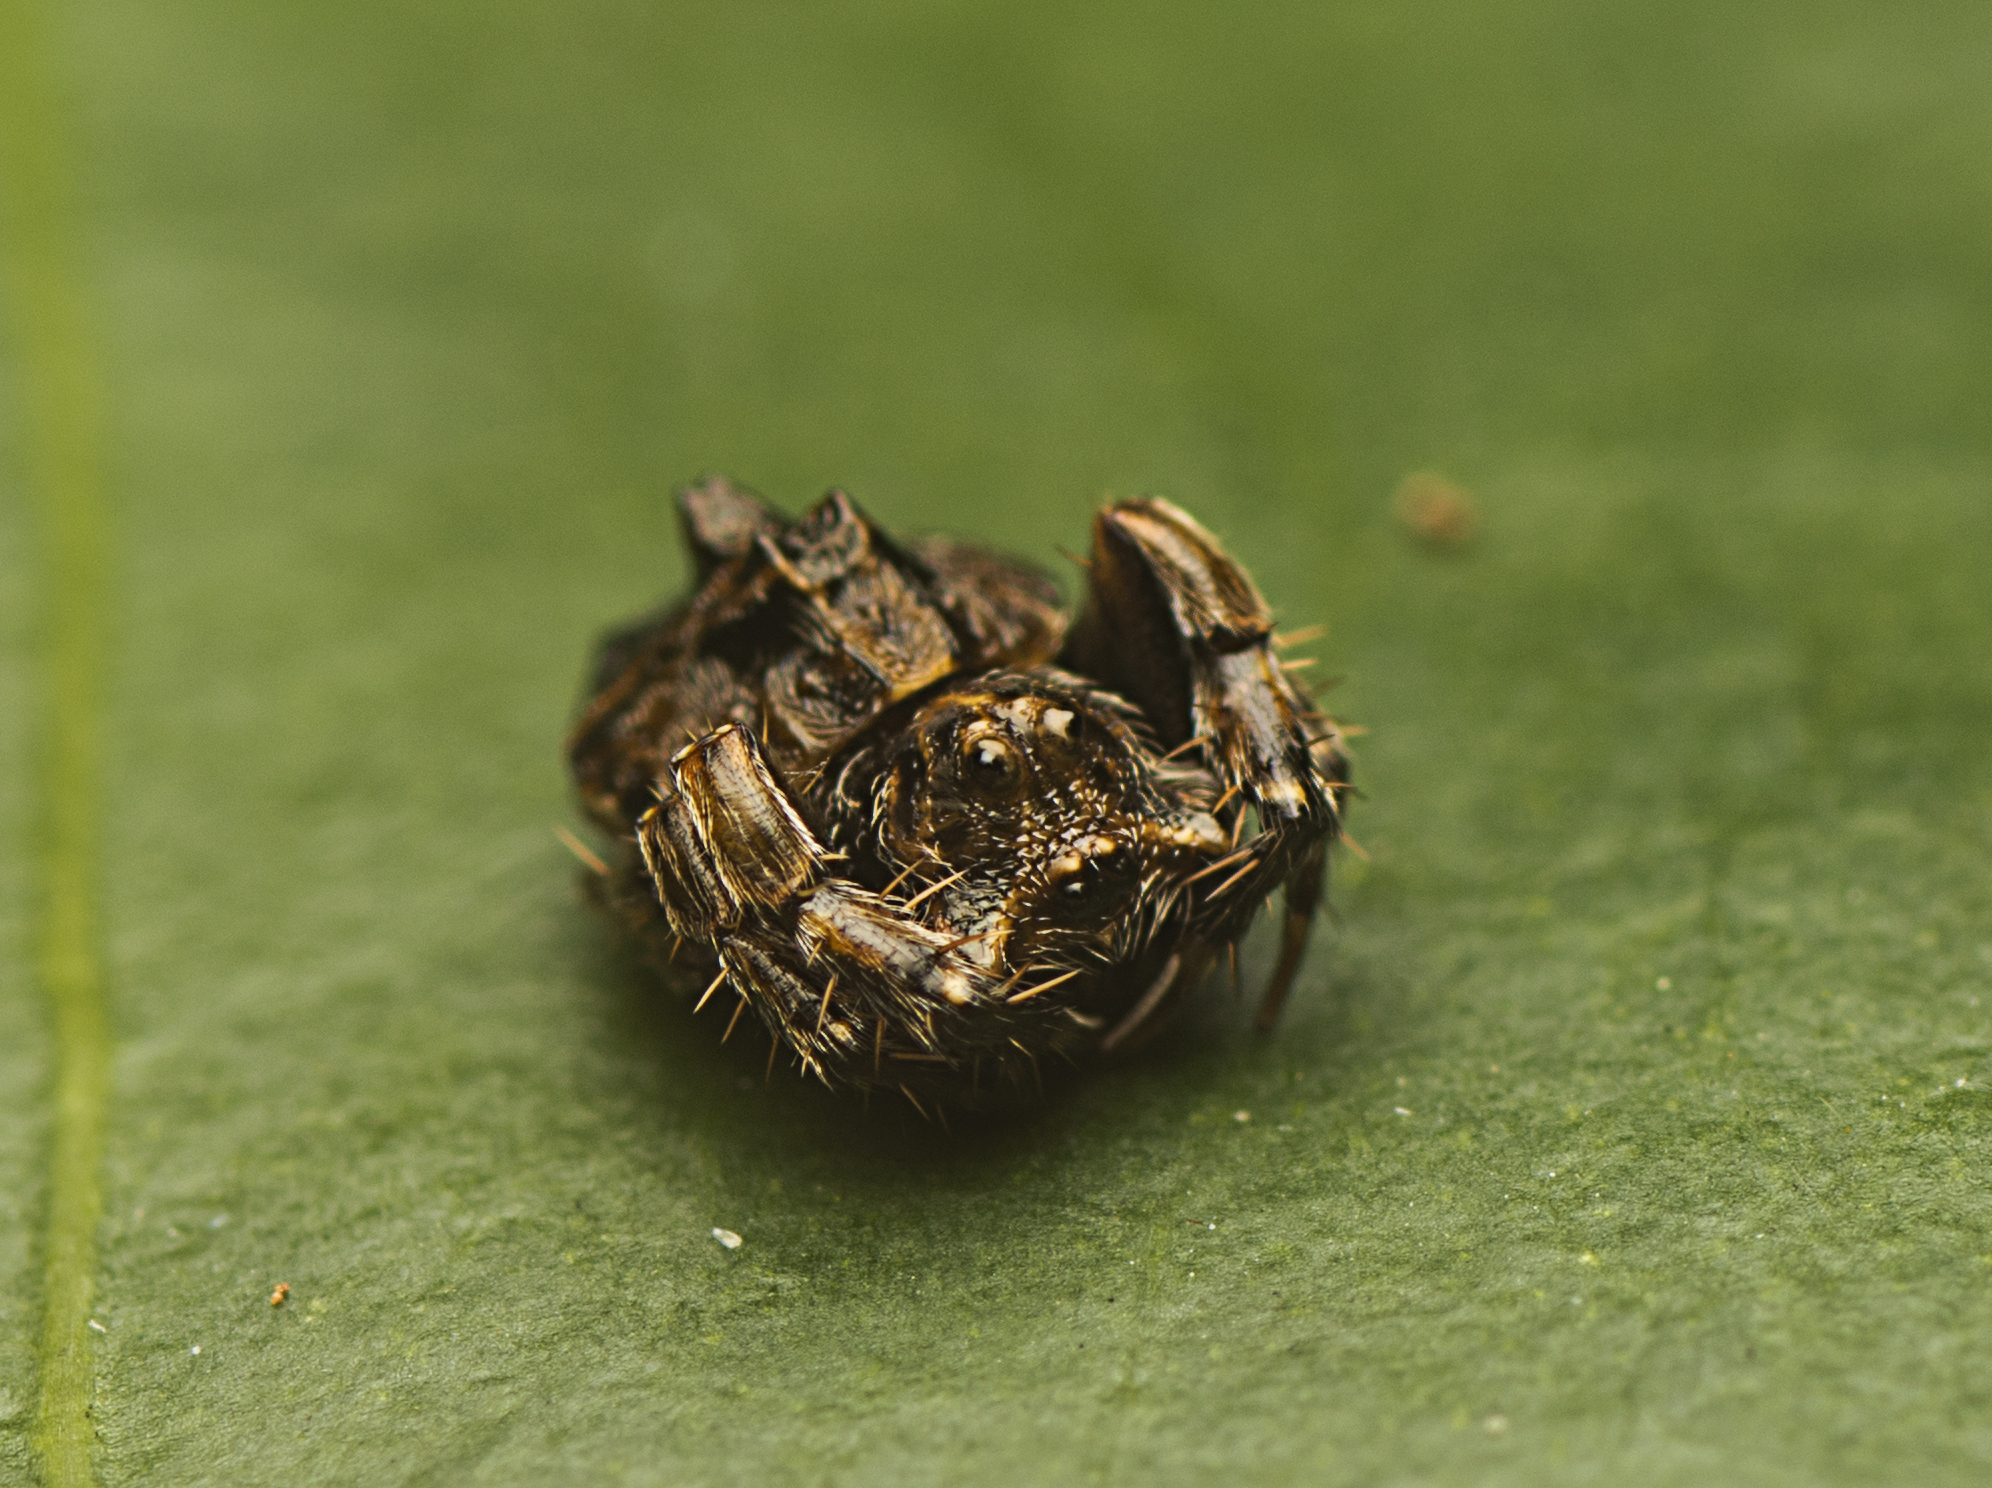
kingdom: Animalia
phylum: Arthropoda
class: Arachnida
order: Araneae
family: Arkyidae
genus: Arkys
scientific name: Arkys tuberculatus
